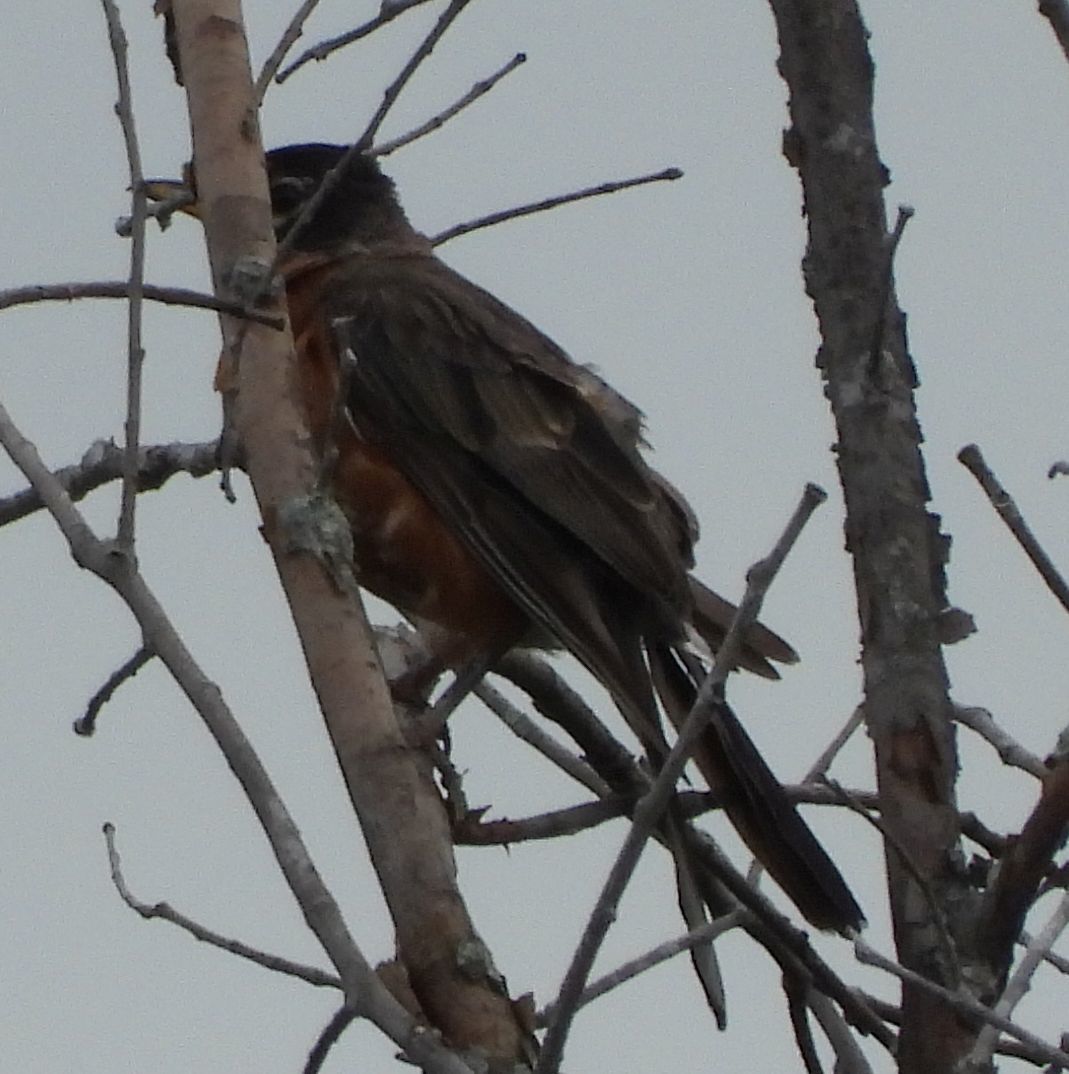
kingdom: Animalia
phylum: Chordata
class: Aves
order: Passeriformes
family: Turdidae
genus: Turdus
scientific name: Turdus migratorius
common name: American robin
